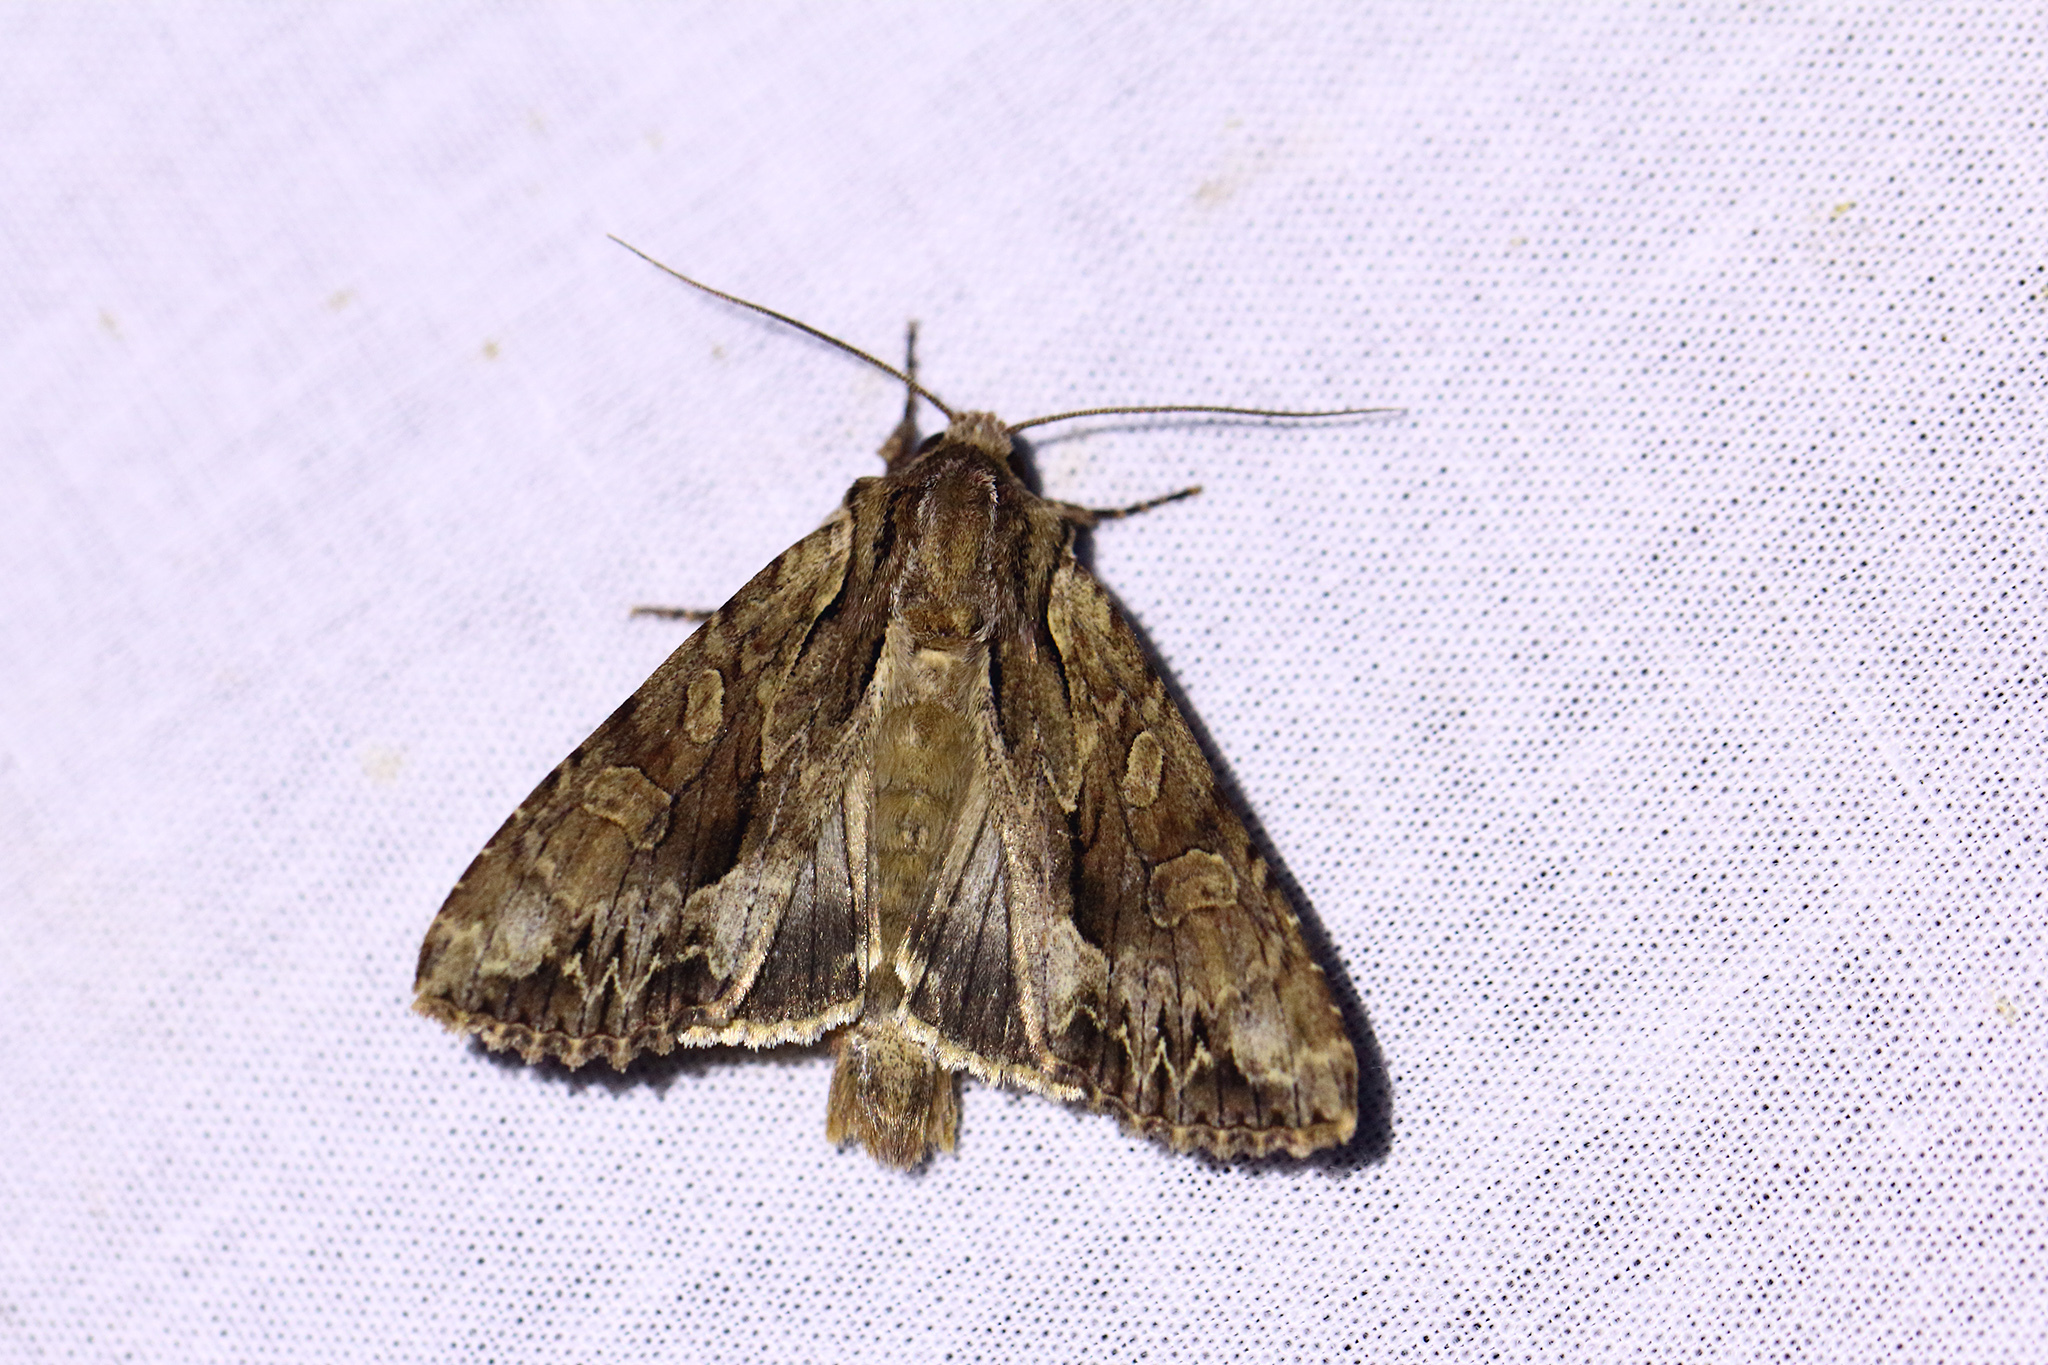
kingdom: Animalia
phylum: Arthropoda
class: Insecta
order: Lepidoptera
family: Noctuidae
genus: Apamea
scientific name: Apamea monoglypha
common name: Dark arches
